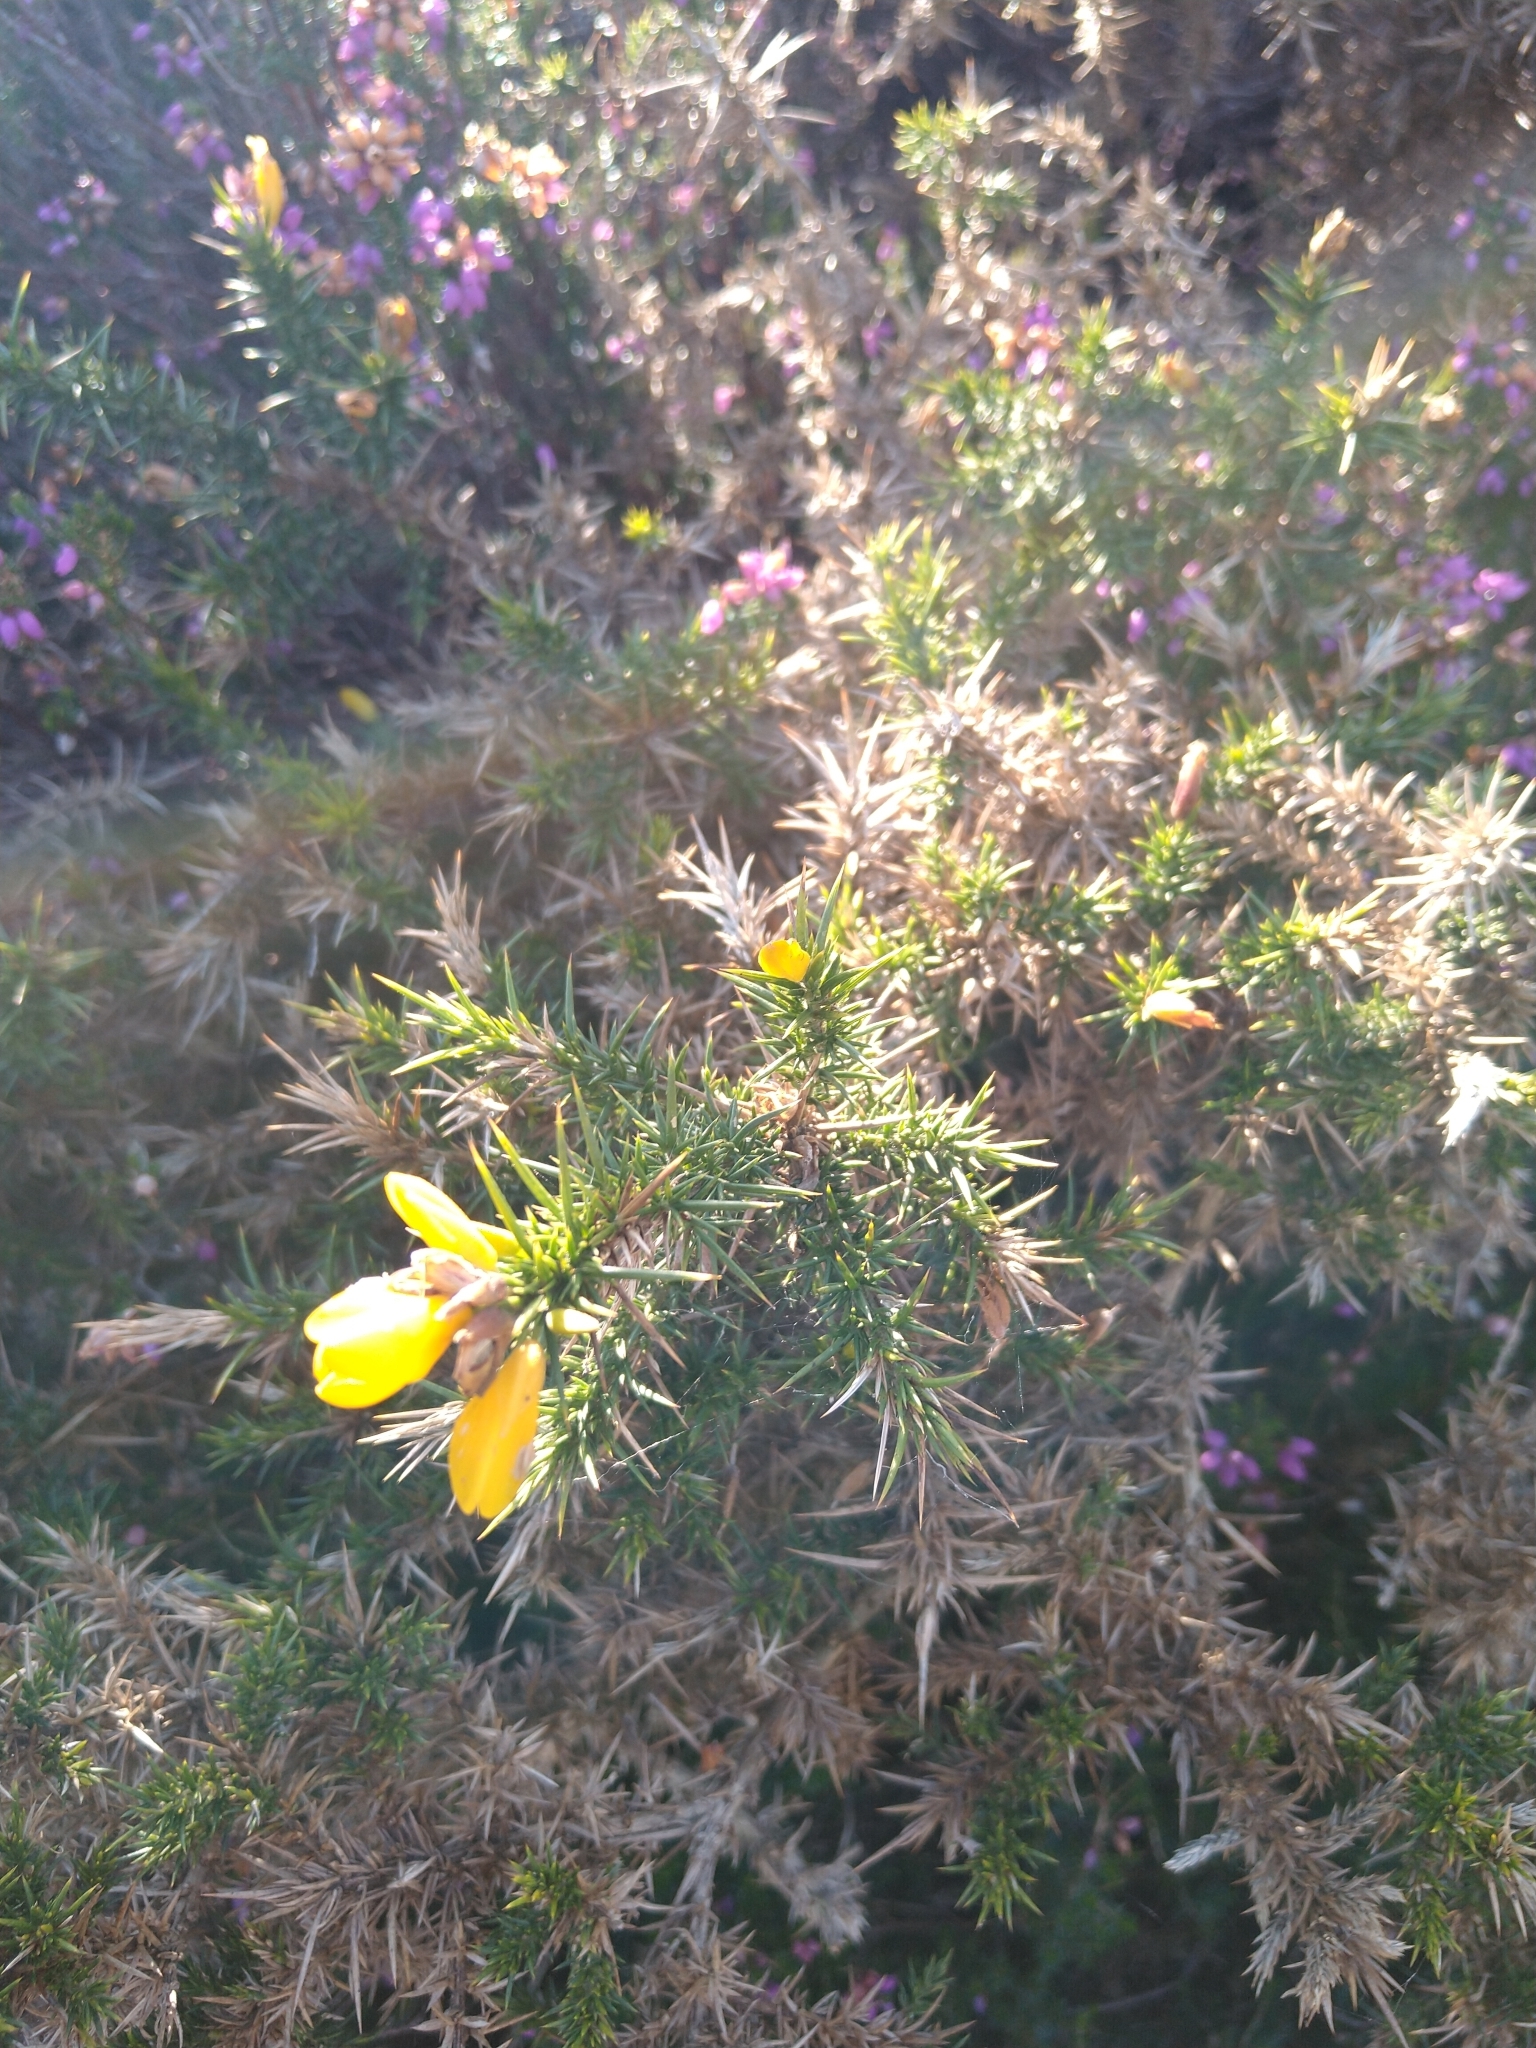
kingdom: Plantae
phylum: Tracheophyta
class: Magnoliopsida
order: Fabales
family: Fabaceae
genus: Ulex
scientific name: Ulex europaeus
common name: Common gorse
